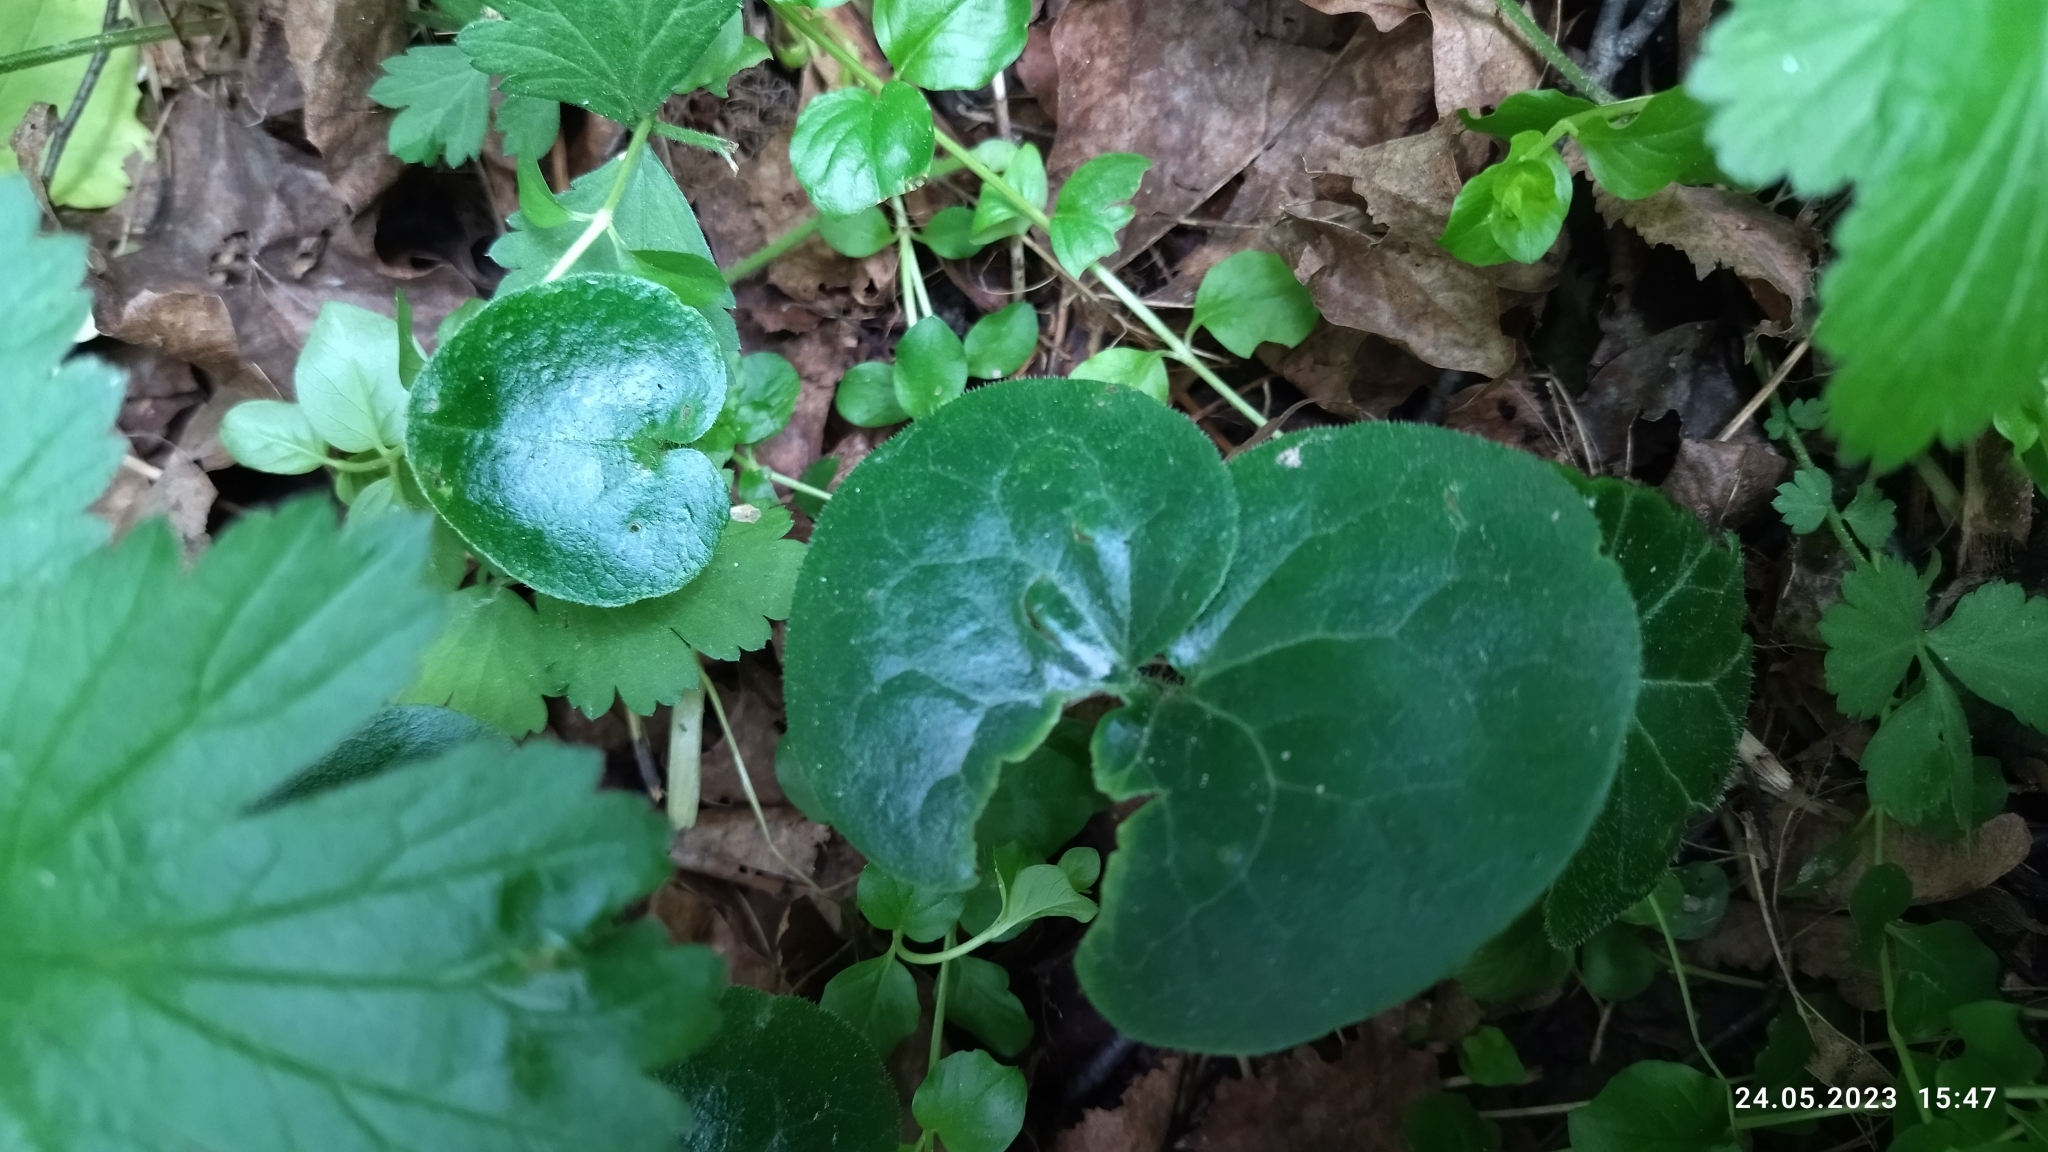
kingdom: Plantae
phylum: Tracheophyta
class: Magnoliopsida
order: Piperales
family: Aristolochiaceae
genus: Asarum
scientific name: Asarum europaeum
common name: Asarabacca
